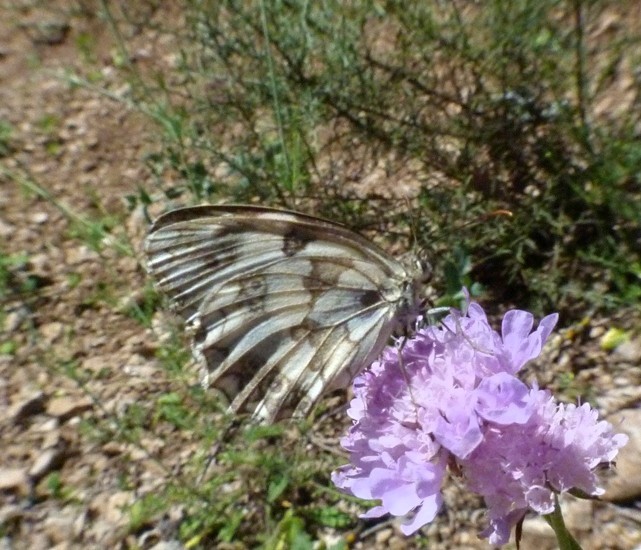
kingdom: Animalia
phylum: Arthropoda
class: Insecta
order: Lepidoptera
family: Nymphalidae
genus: Melanargia
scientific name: Melanargia lachesis
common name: Iberian marbled white
